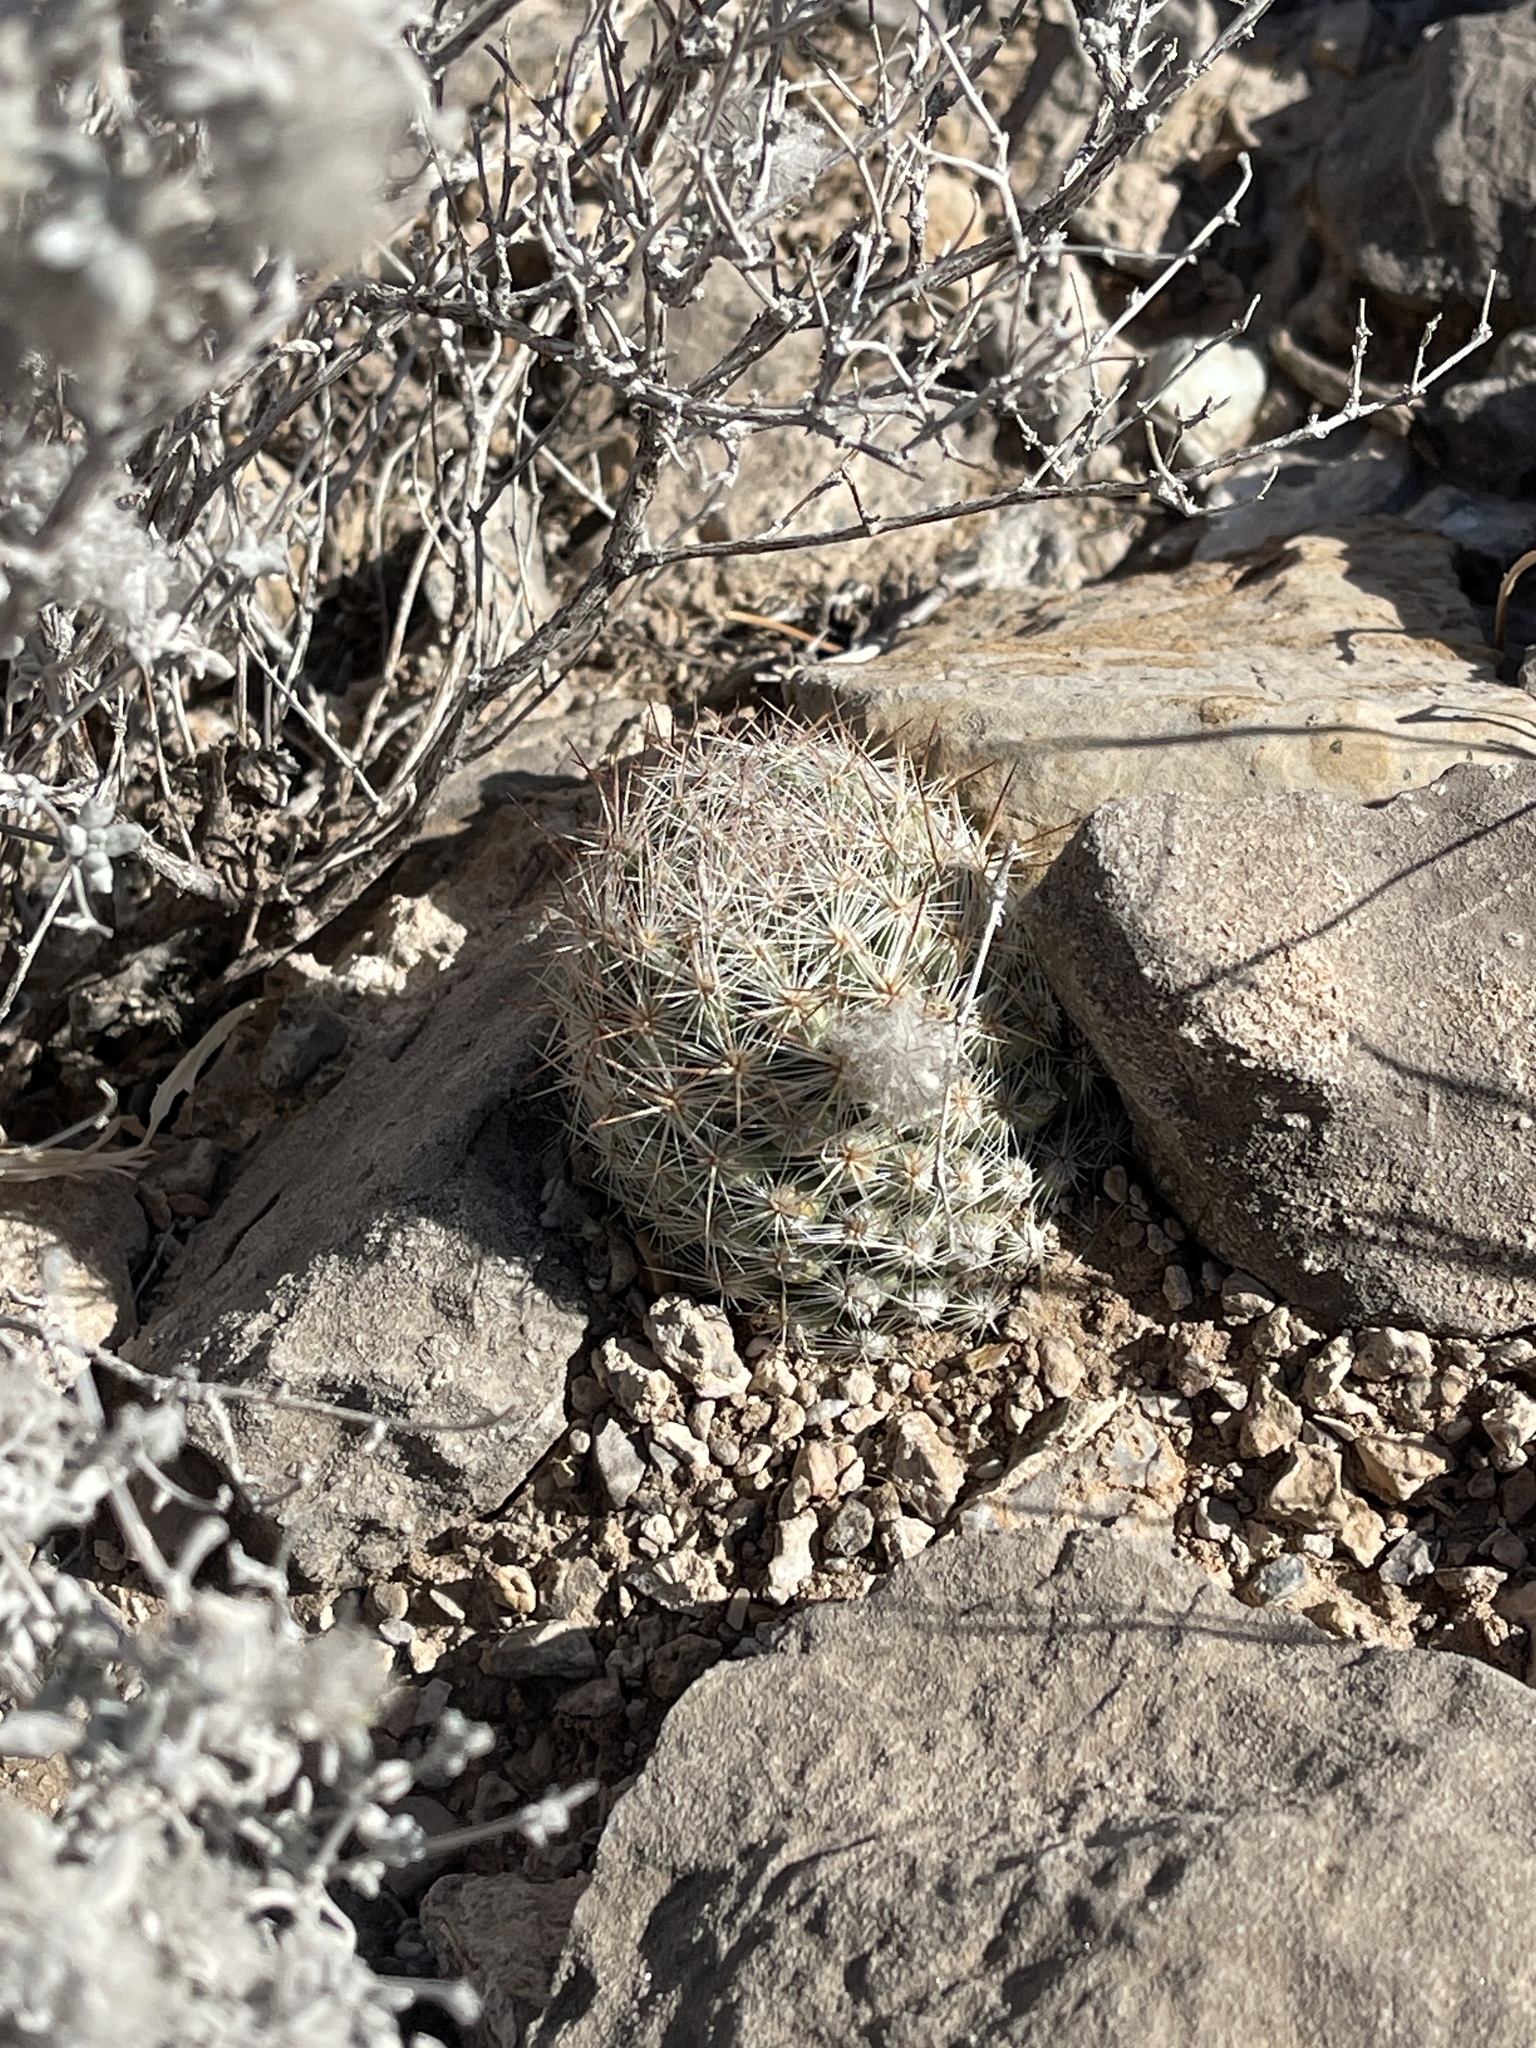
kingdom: Plantae
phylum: Tracheophyta
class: Magnoliopsida
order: Caryophyllales
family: Cactaceae
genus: Pelecyphora
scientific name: Pelecyphora tuberculosa
